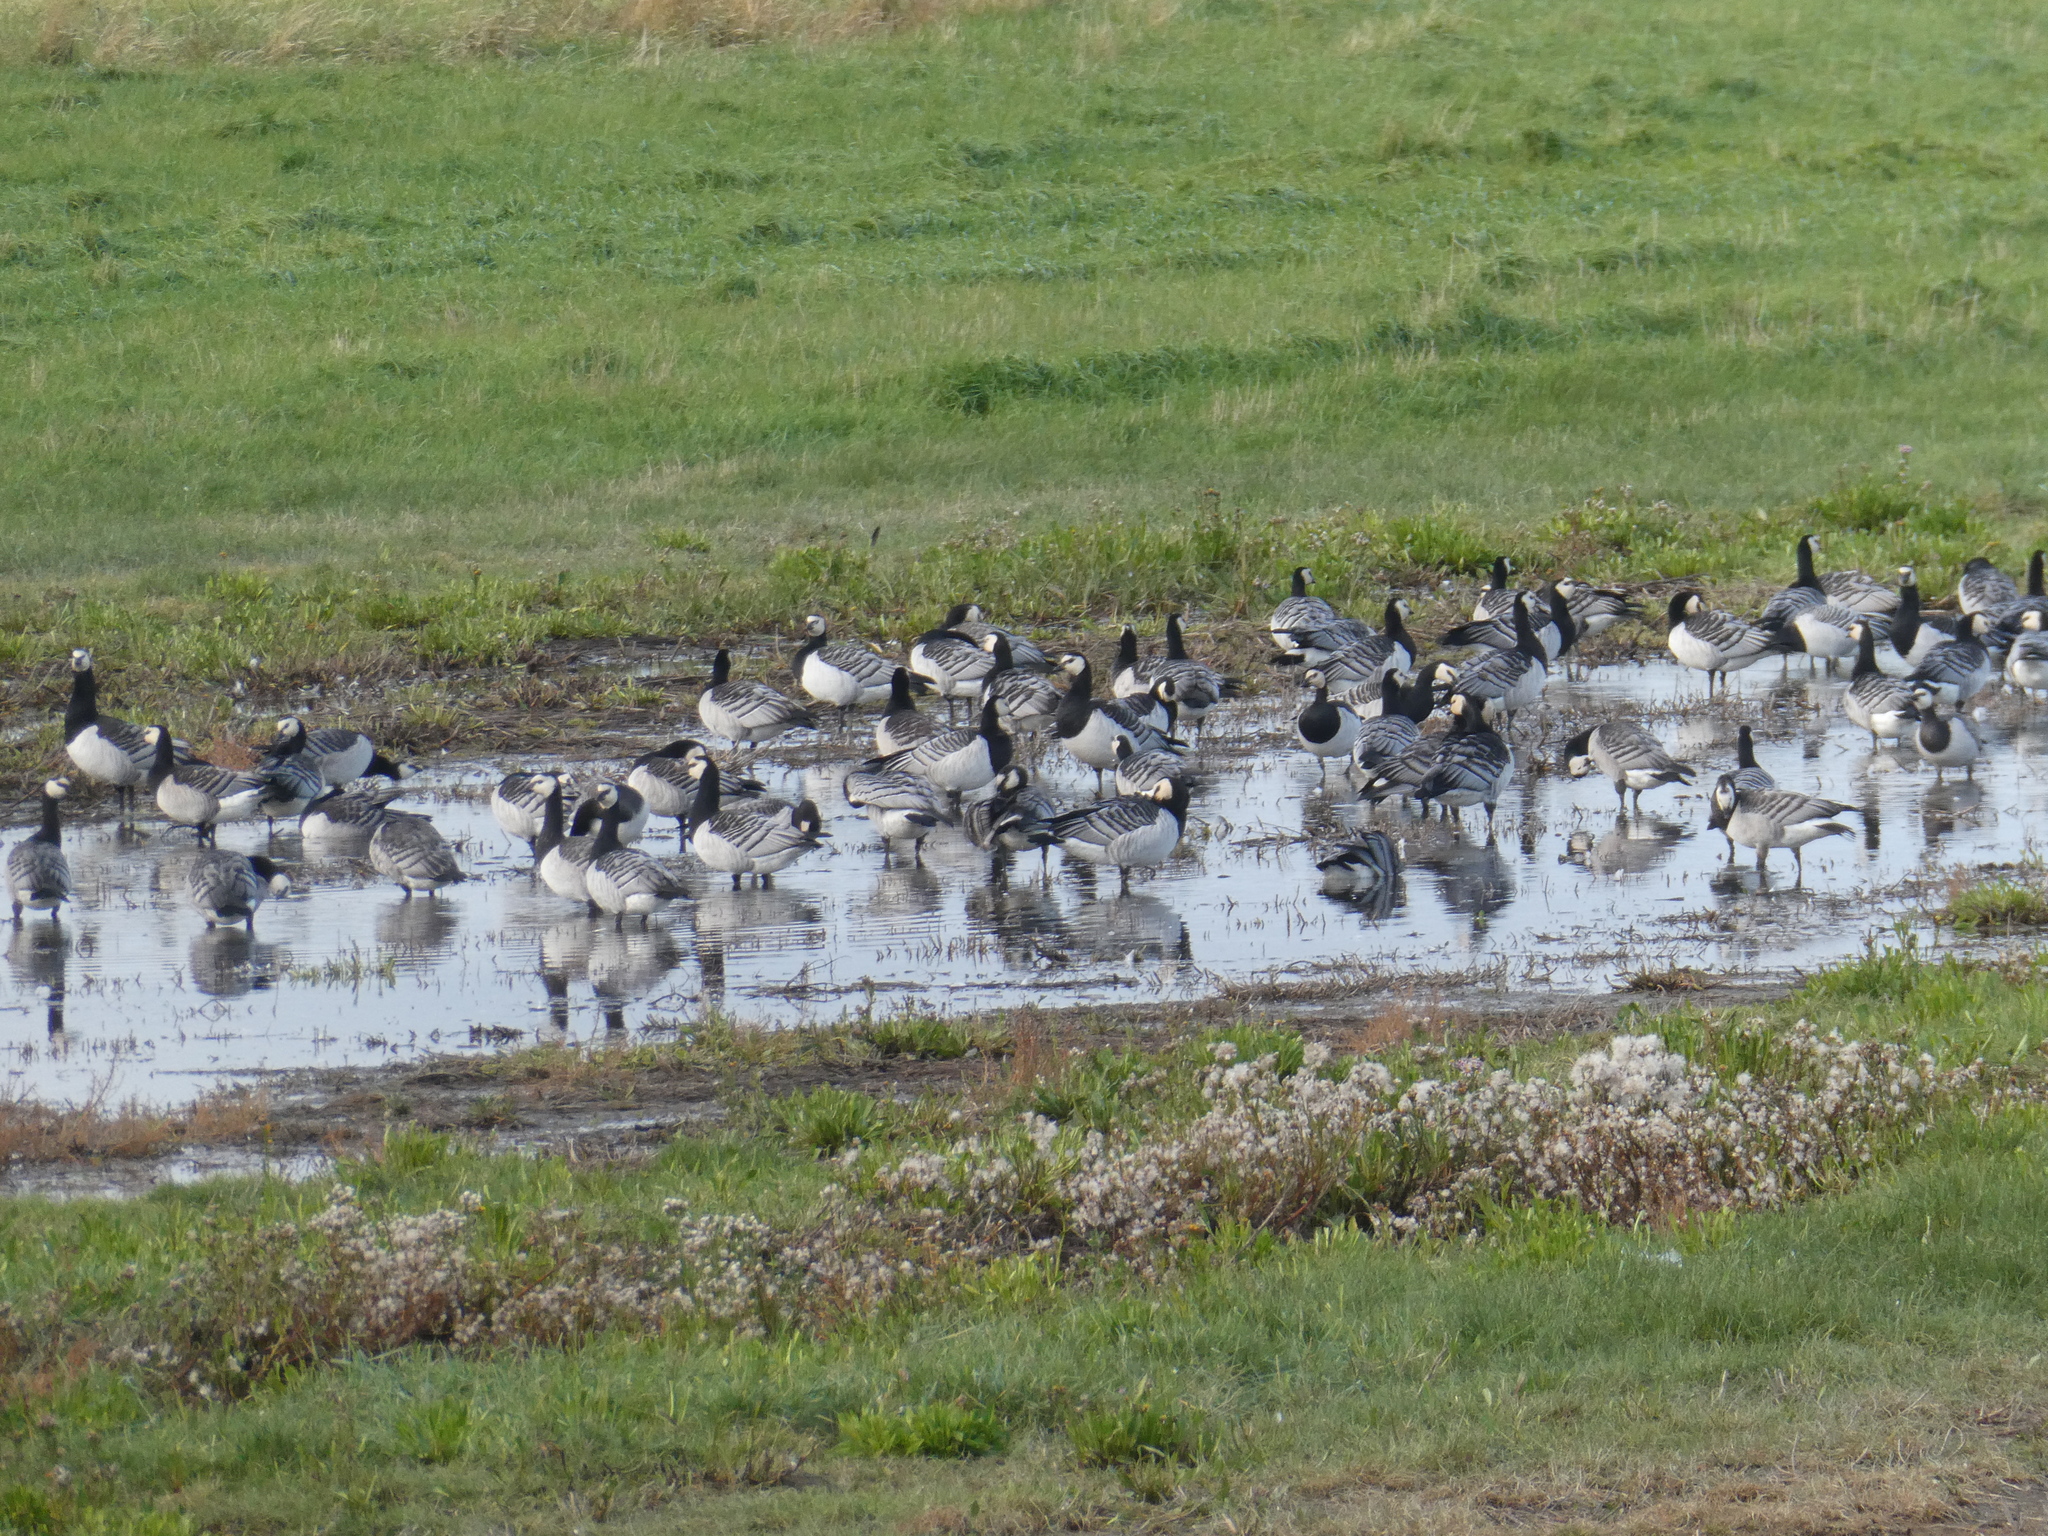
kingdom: Animalia
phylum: Chordata
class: Aves
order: Anseriformes
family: Anatidae
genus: Branta
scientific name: Branta leucopsis
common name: Barnacle goose
